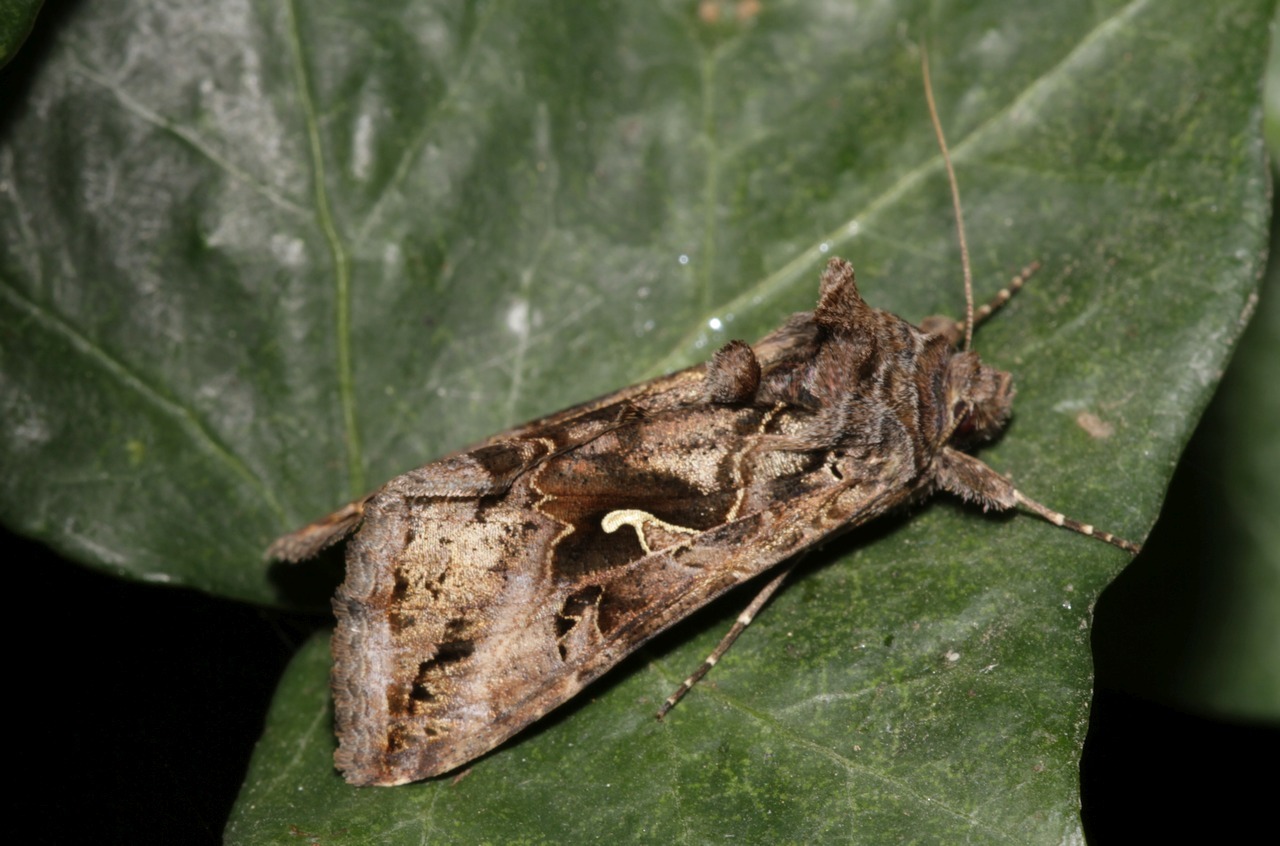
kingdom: Animalia
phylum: Arthropoda
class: Insecta
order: Lepidoptera
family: Noctuidae
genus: Autographa
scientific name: Autographa gamma
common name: Silver y
